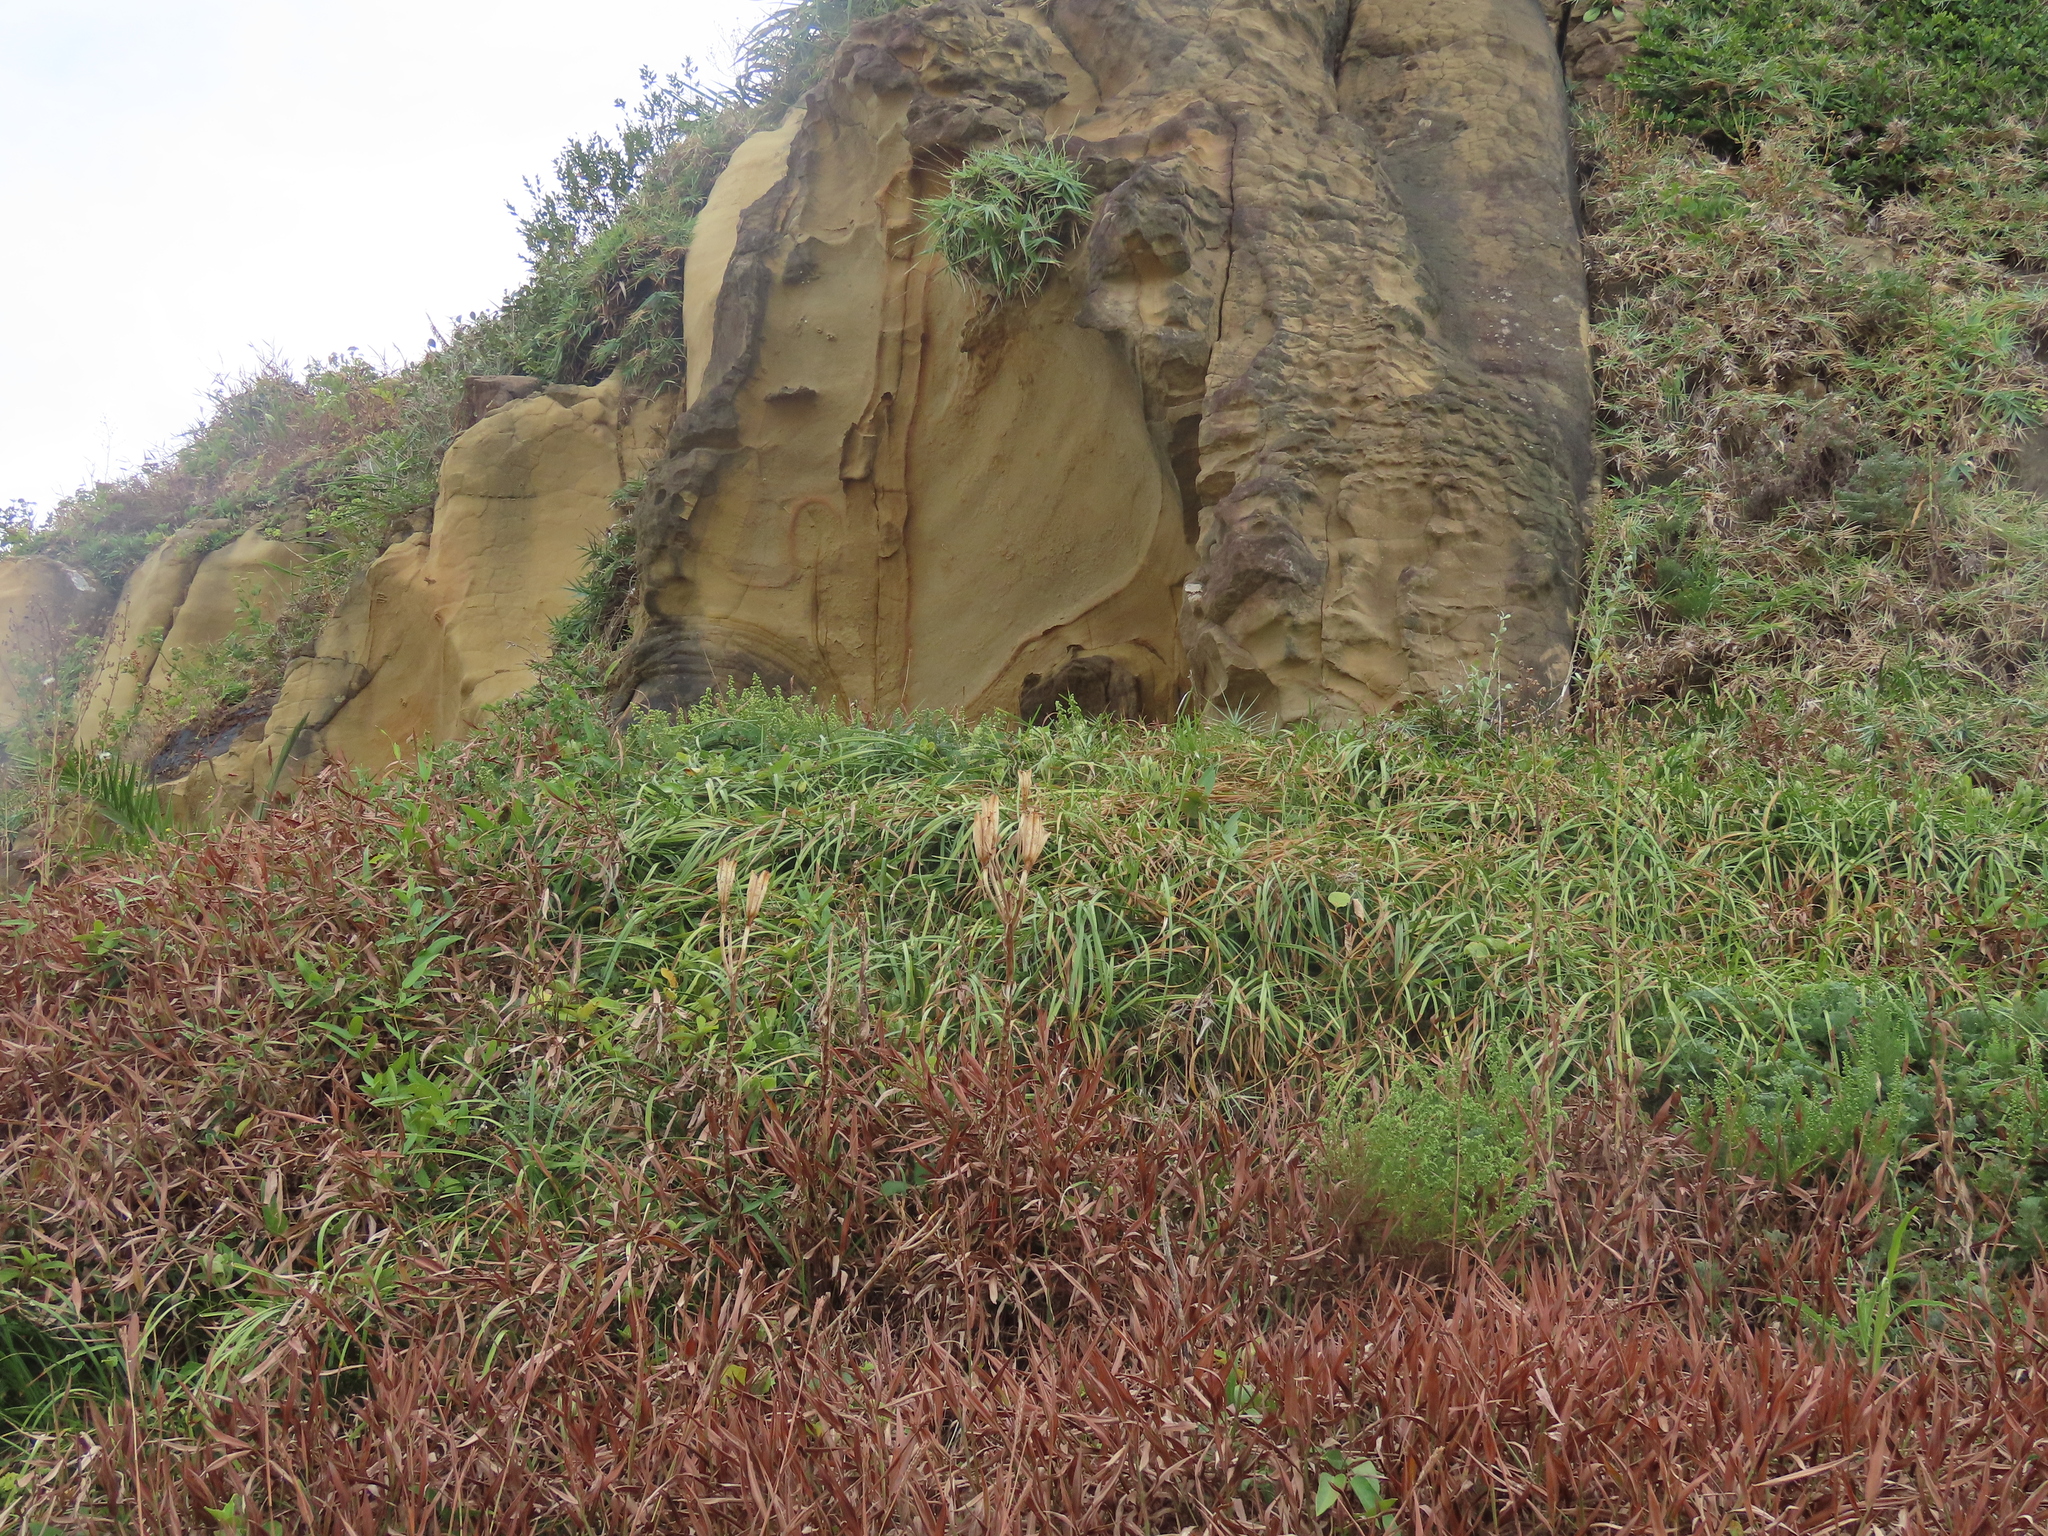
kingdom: Plantae
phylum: Tracheophyta
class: Liliopsida
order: Liliales
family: Liliaceae
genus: Lilium
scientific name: Lilium longiflorum
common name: Easter lily
